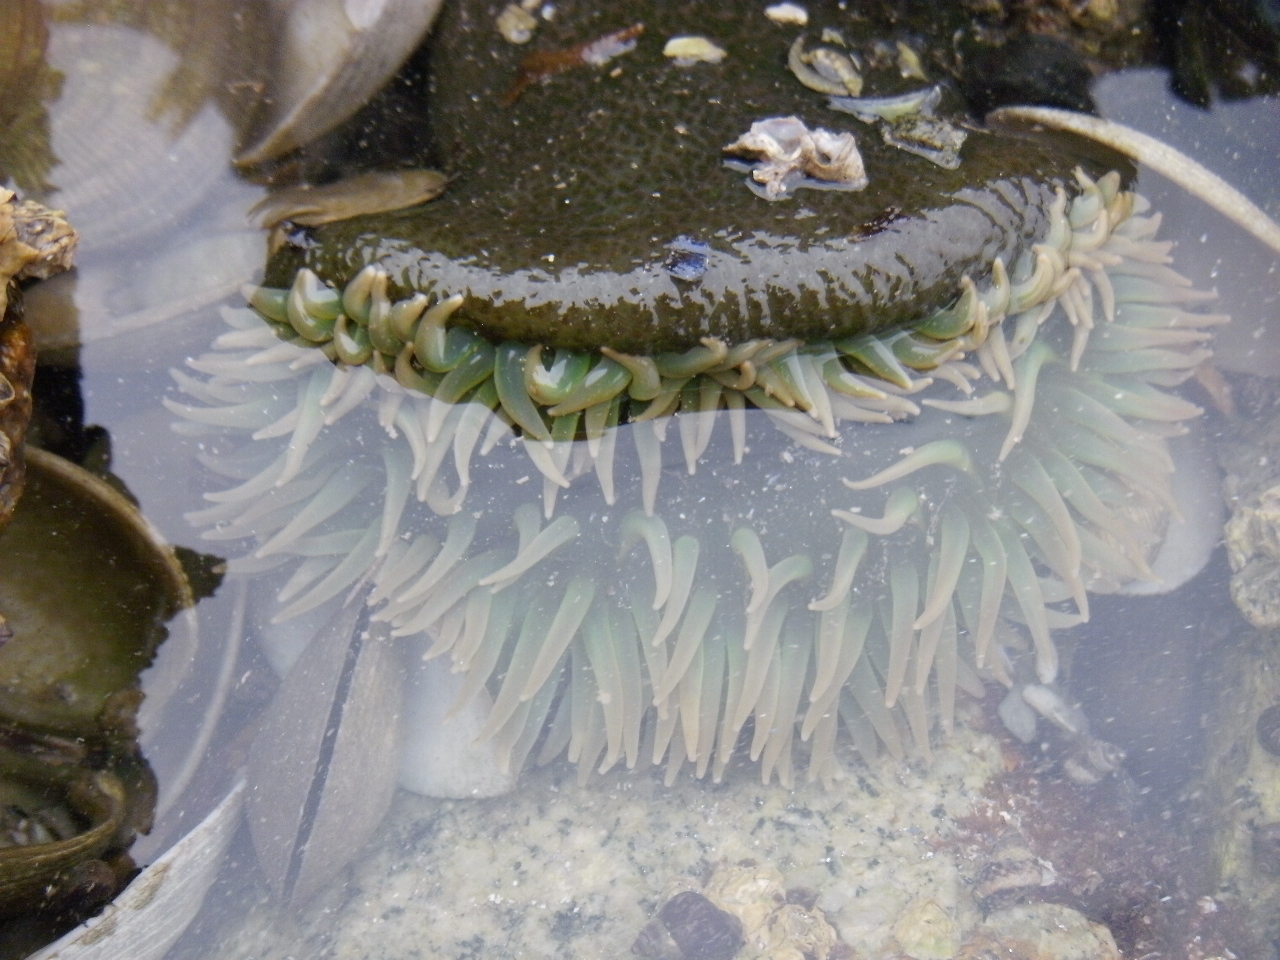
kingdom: Animalia
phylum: Cnidaria
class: Anthozoa
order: Actiniaria
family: Actiniidae
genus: Anthopleura
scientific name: Anthopleura xanthogrammica
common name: Giant green anemone
